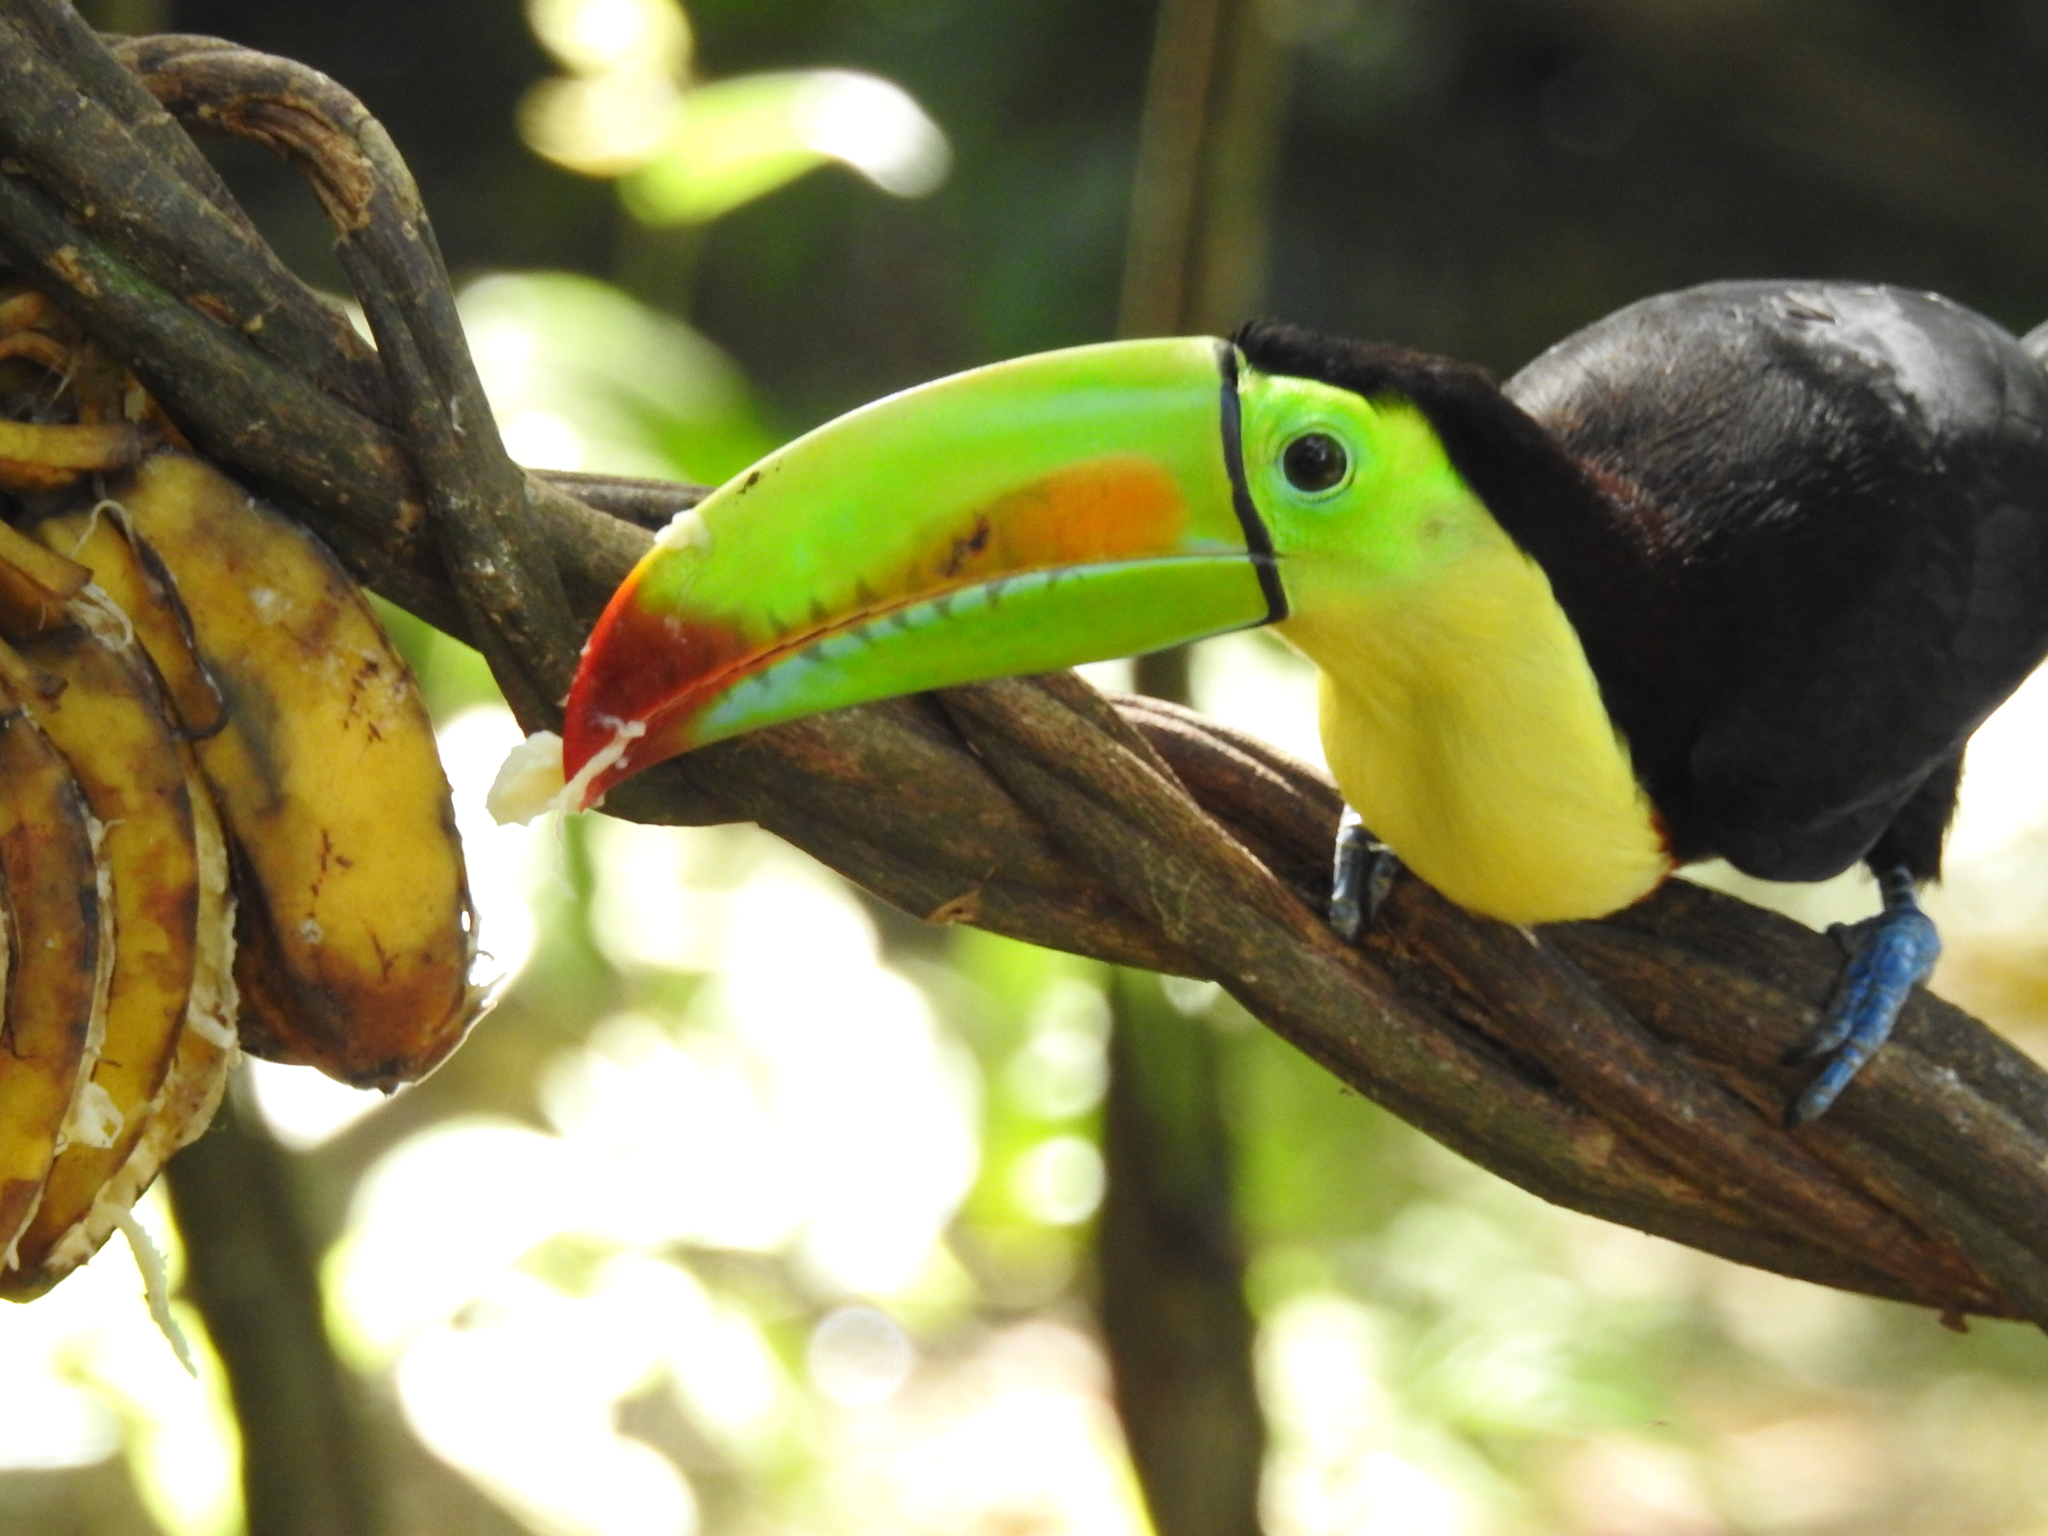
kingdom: Animalia
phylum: Chordata
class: Aves
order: Piciformes
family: Ramphastidae
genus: Ramphastos
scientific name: Ramphastos sulfuratus
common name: Keel-billed toucan
